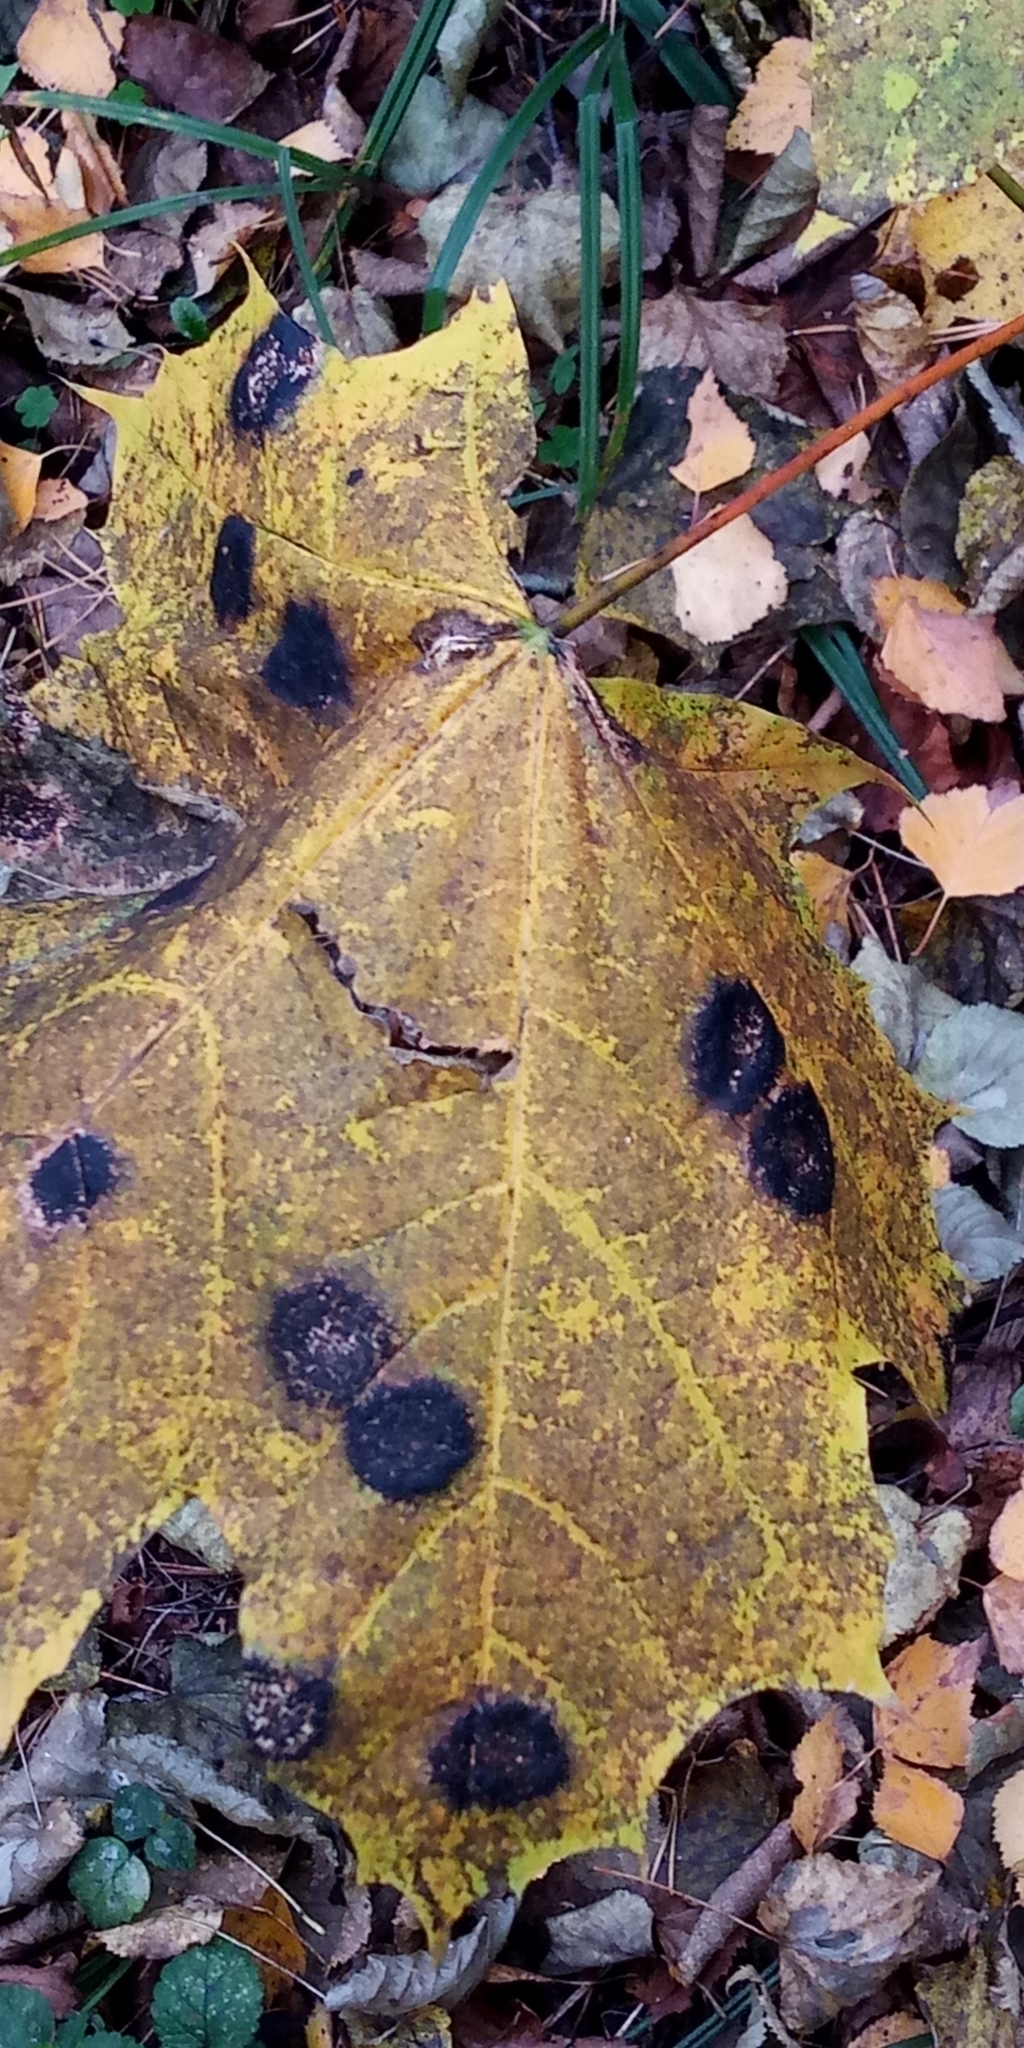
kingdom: Fungi
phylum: Ascomycota
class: Leotiomycetes
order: Rhytismatales
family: Rhytismataceae
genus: Rhytisma
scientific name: Rhytisma acerinum
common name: European tar spot
